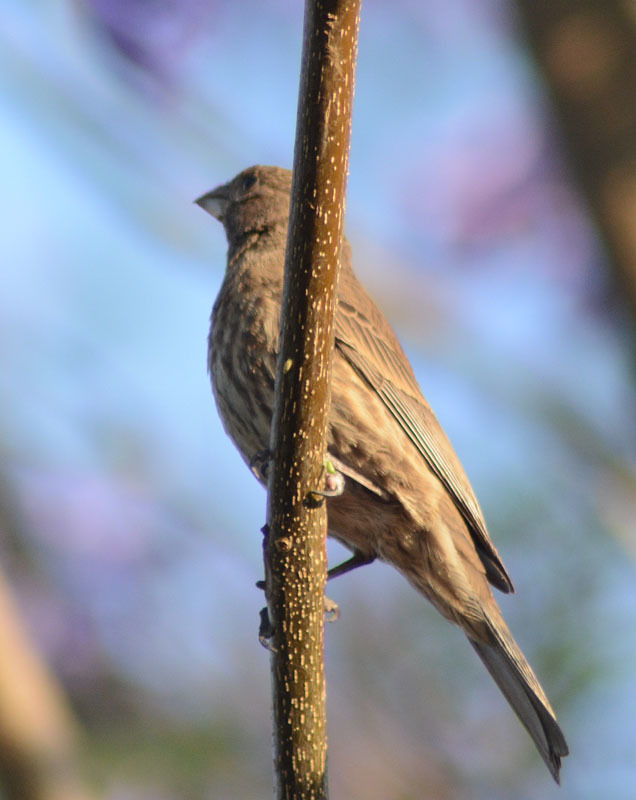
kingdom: Animalia
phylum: Chordata
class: Aves
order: Passeriformes
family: Fringillidae
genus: Haemorhous
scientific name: Haemorhous mexicanus
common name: House finch
